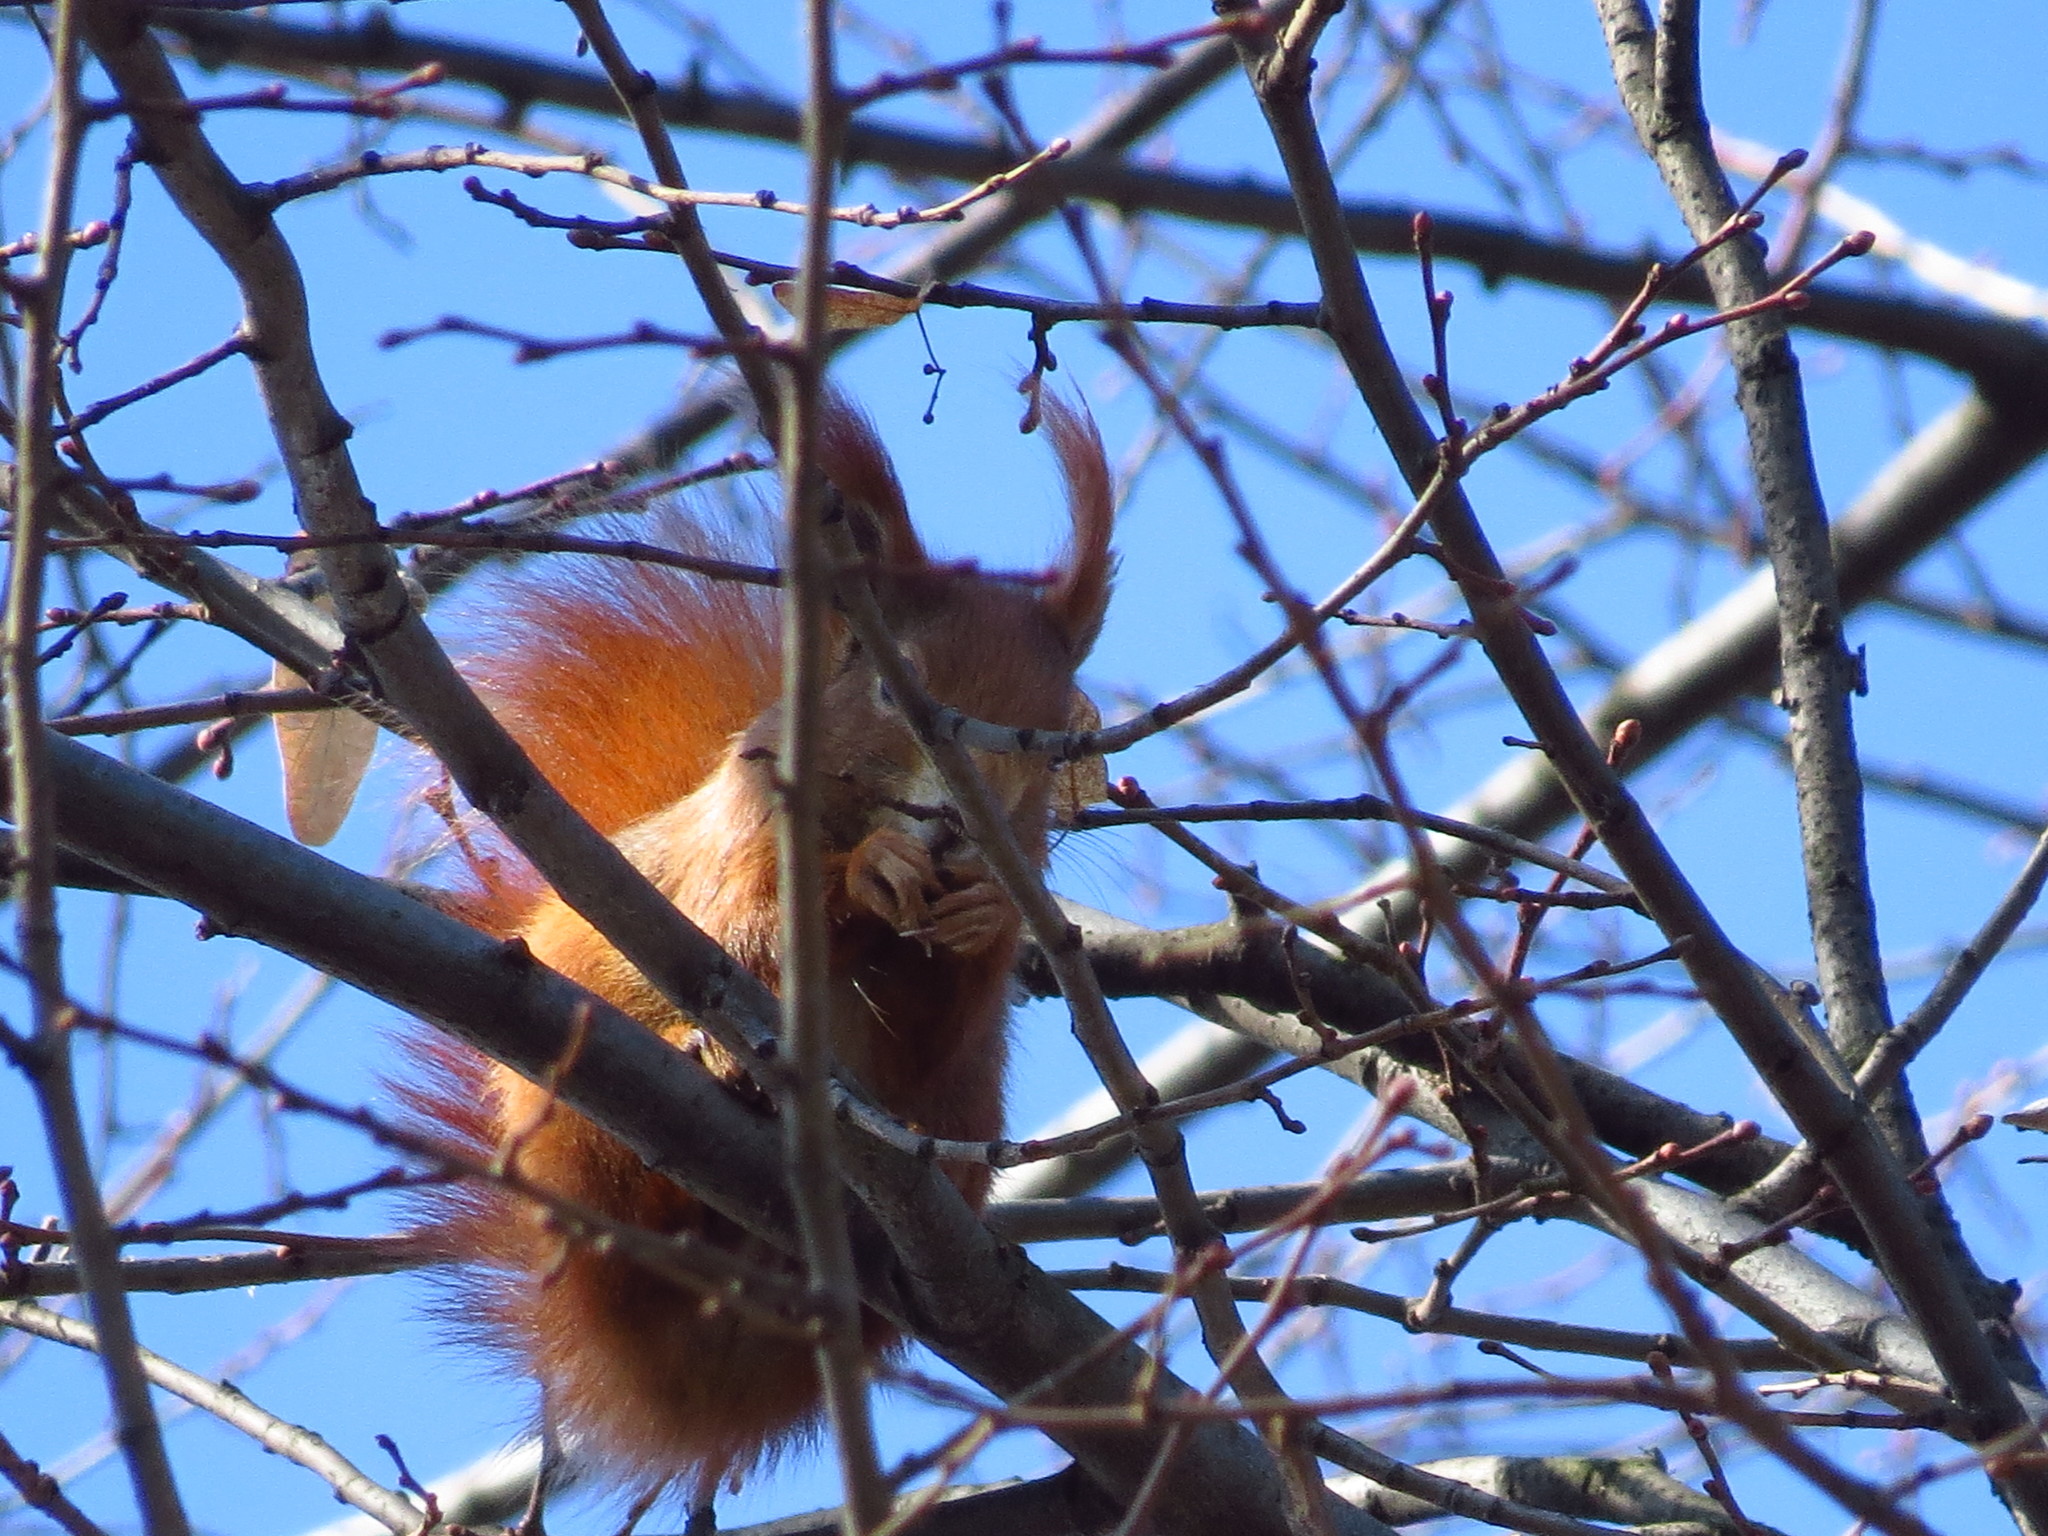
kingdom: Animalia
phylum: Chordata
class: Mammalia
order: Rodentia
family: Sciuridae
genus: Sciurus
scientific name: Sciurus vulgaris
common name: Eurasian red squirrel
